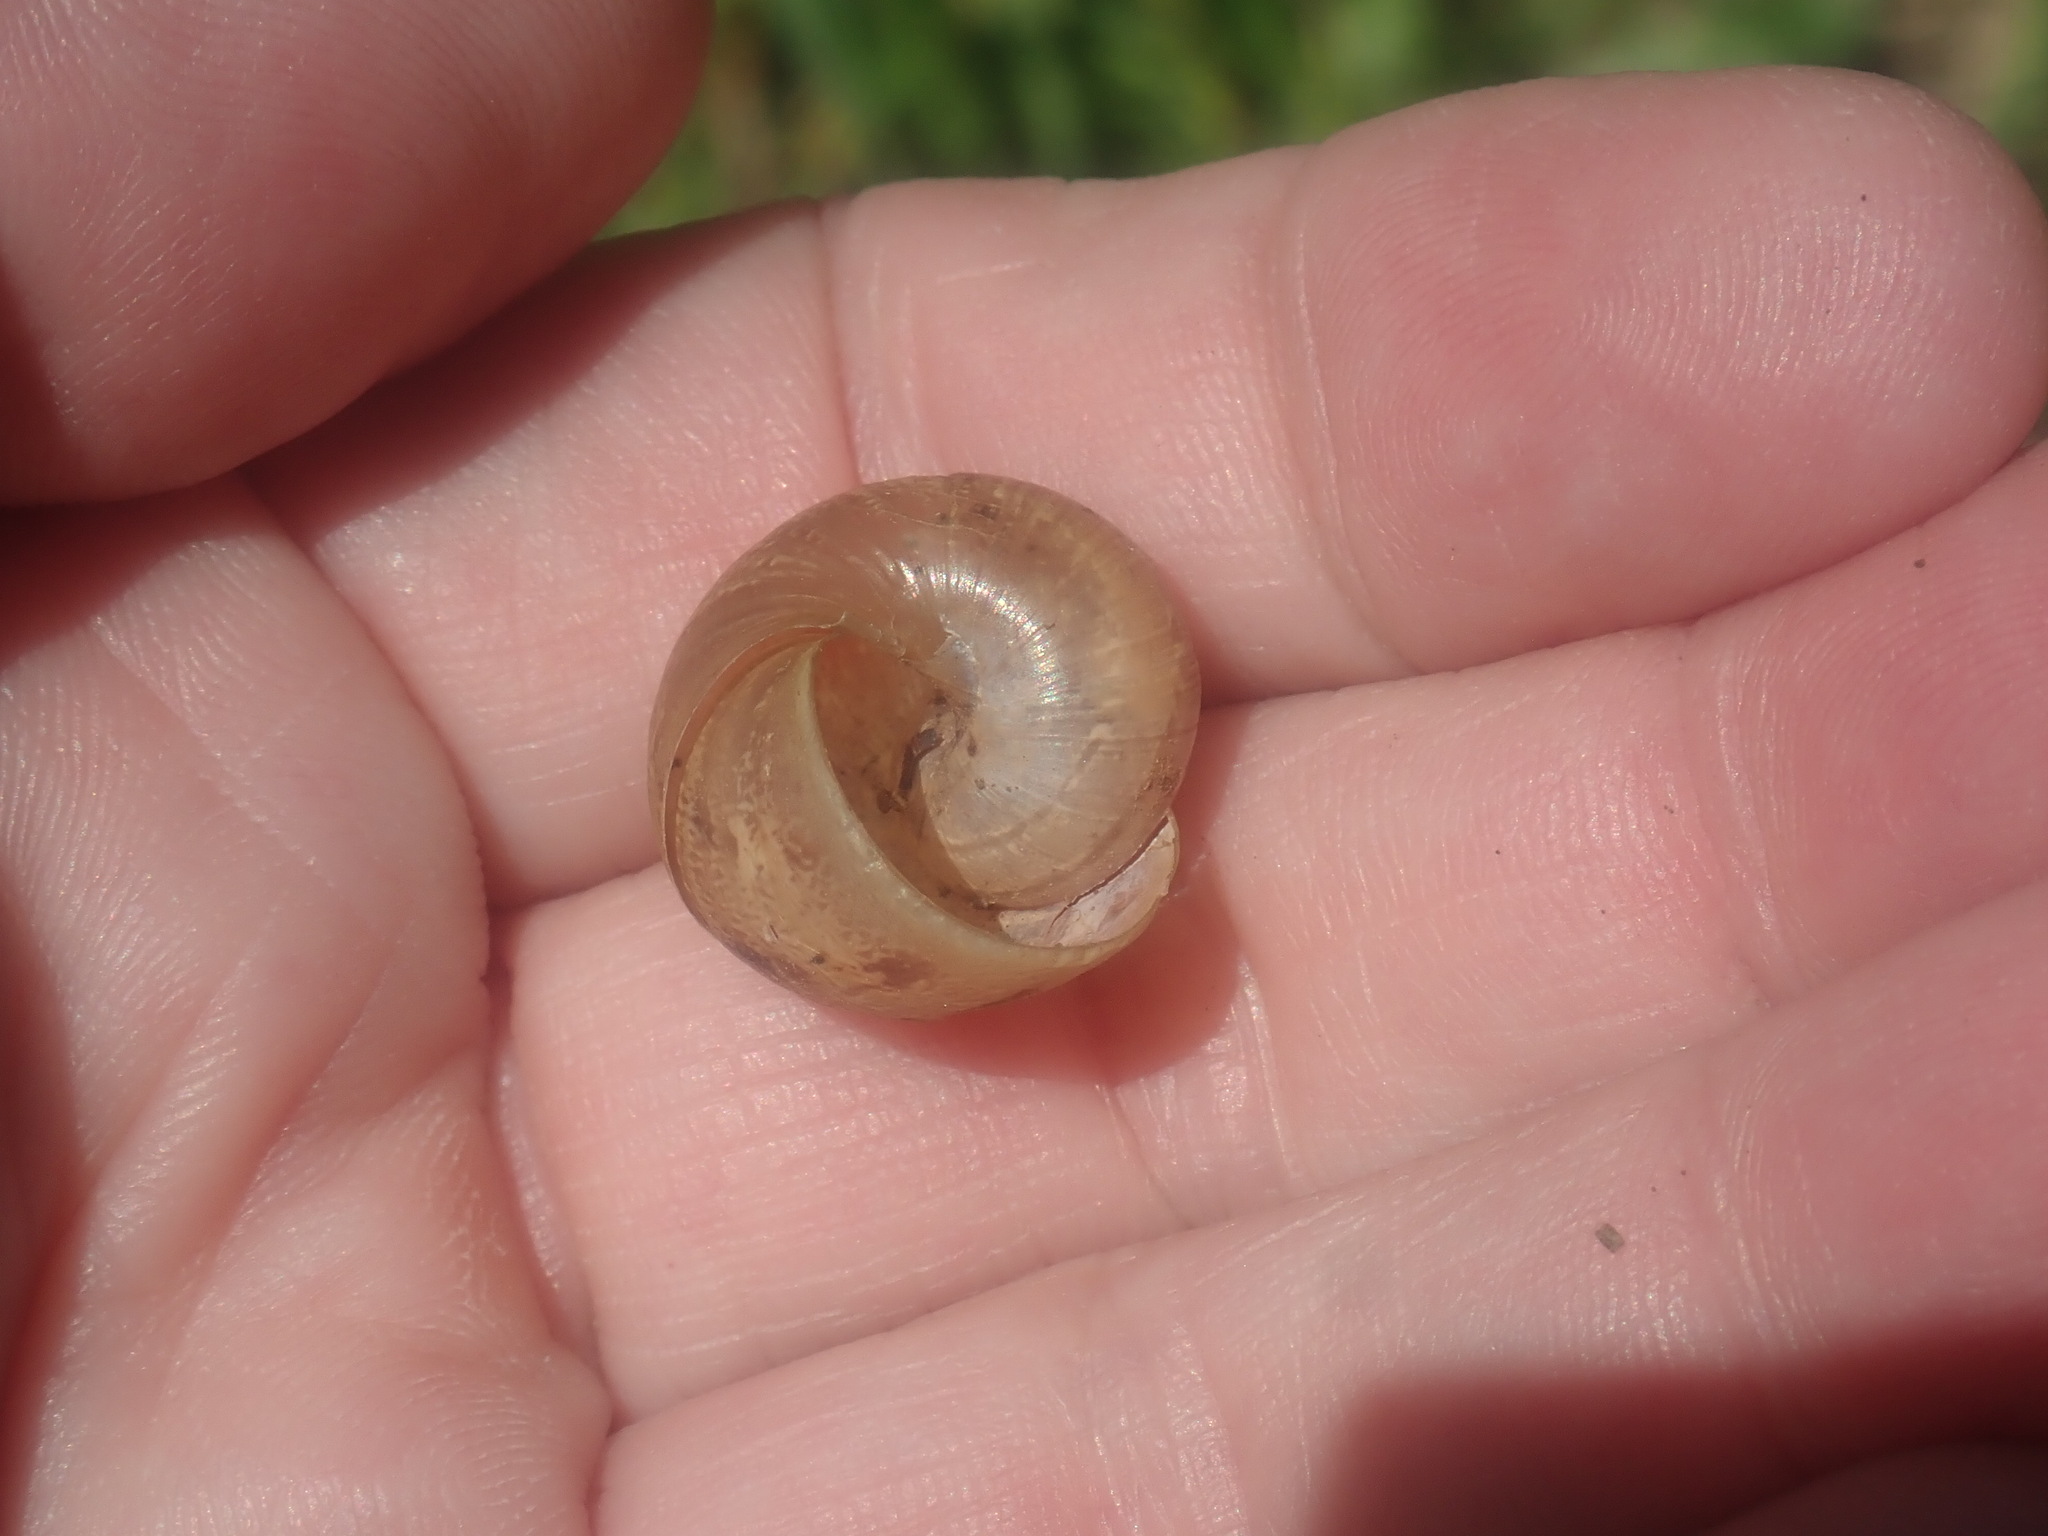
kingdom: Animalia
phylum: Mollusca
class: Gastropoda
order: Stylommatophora
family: Helicidae
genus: Cornu
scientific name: Cornu aspersum
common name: Brown garden snail
